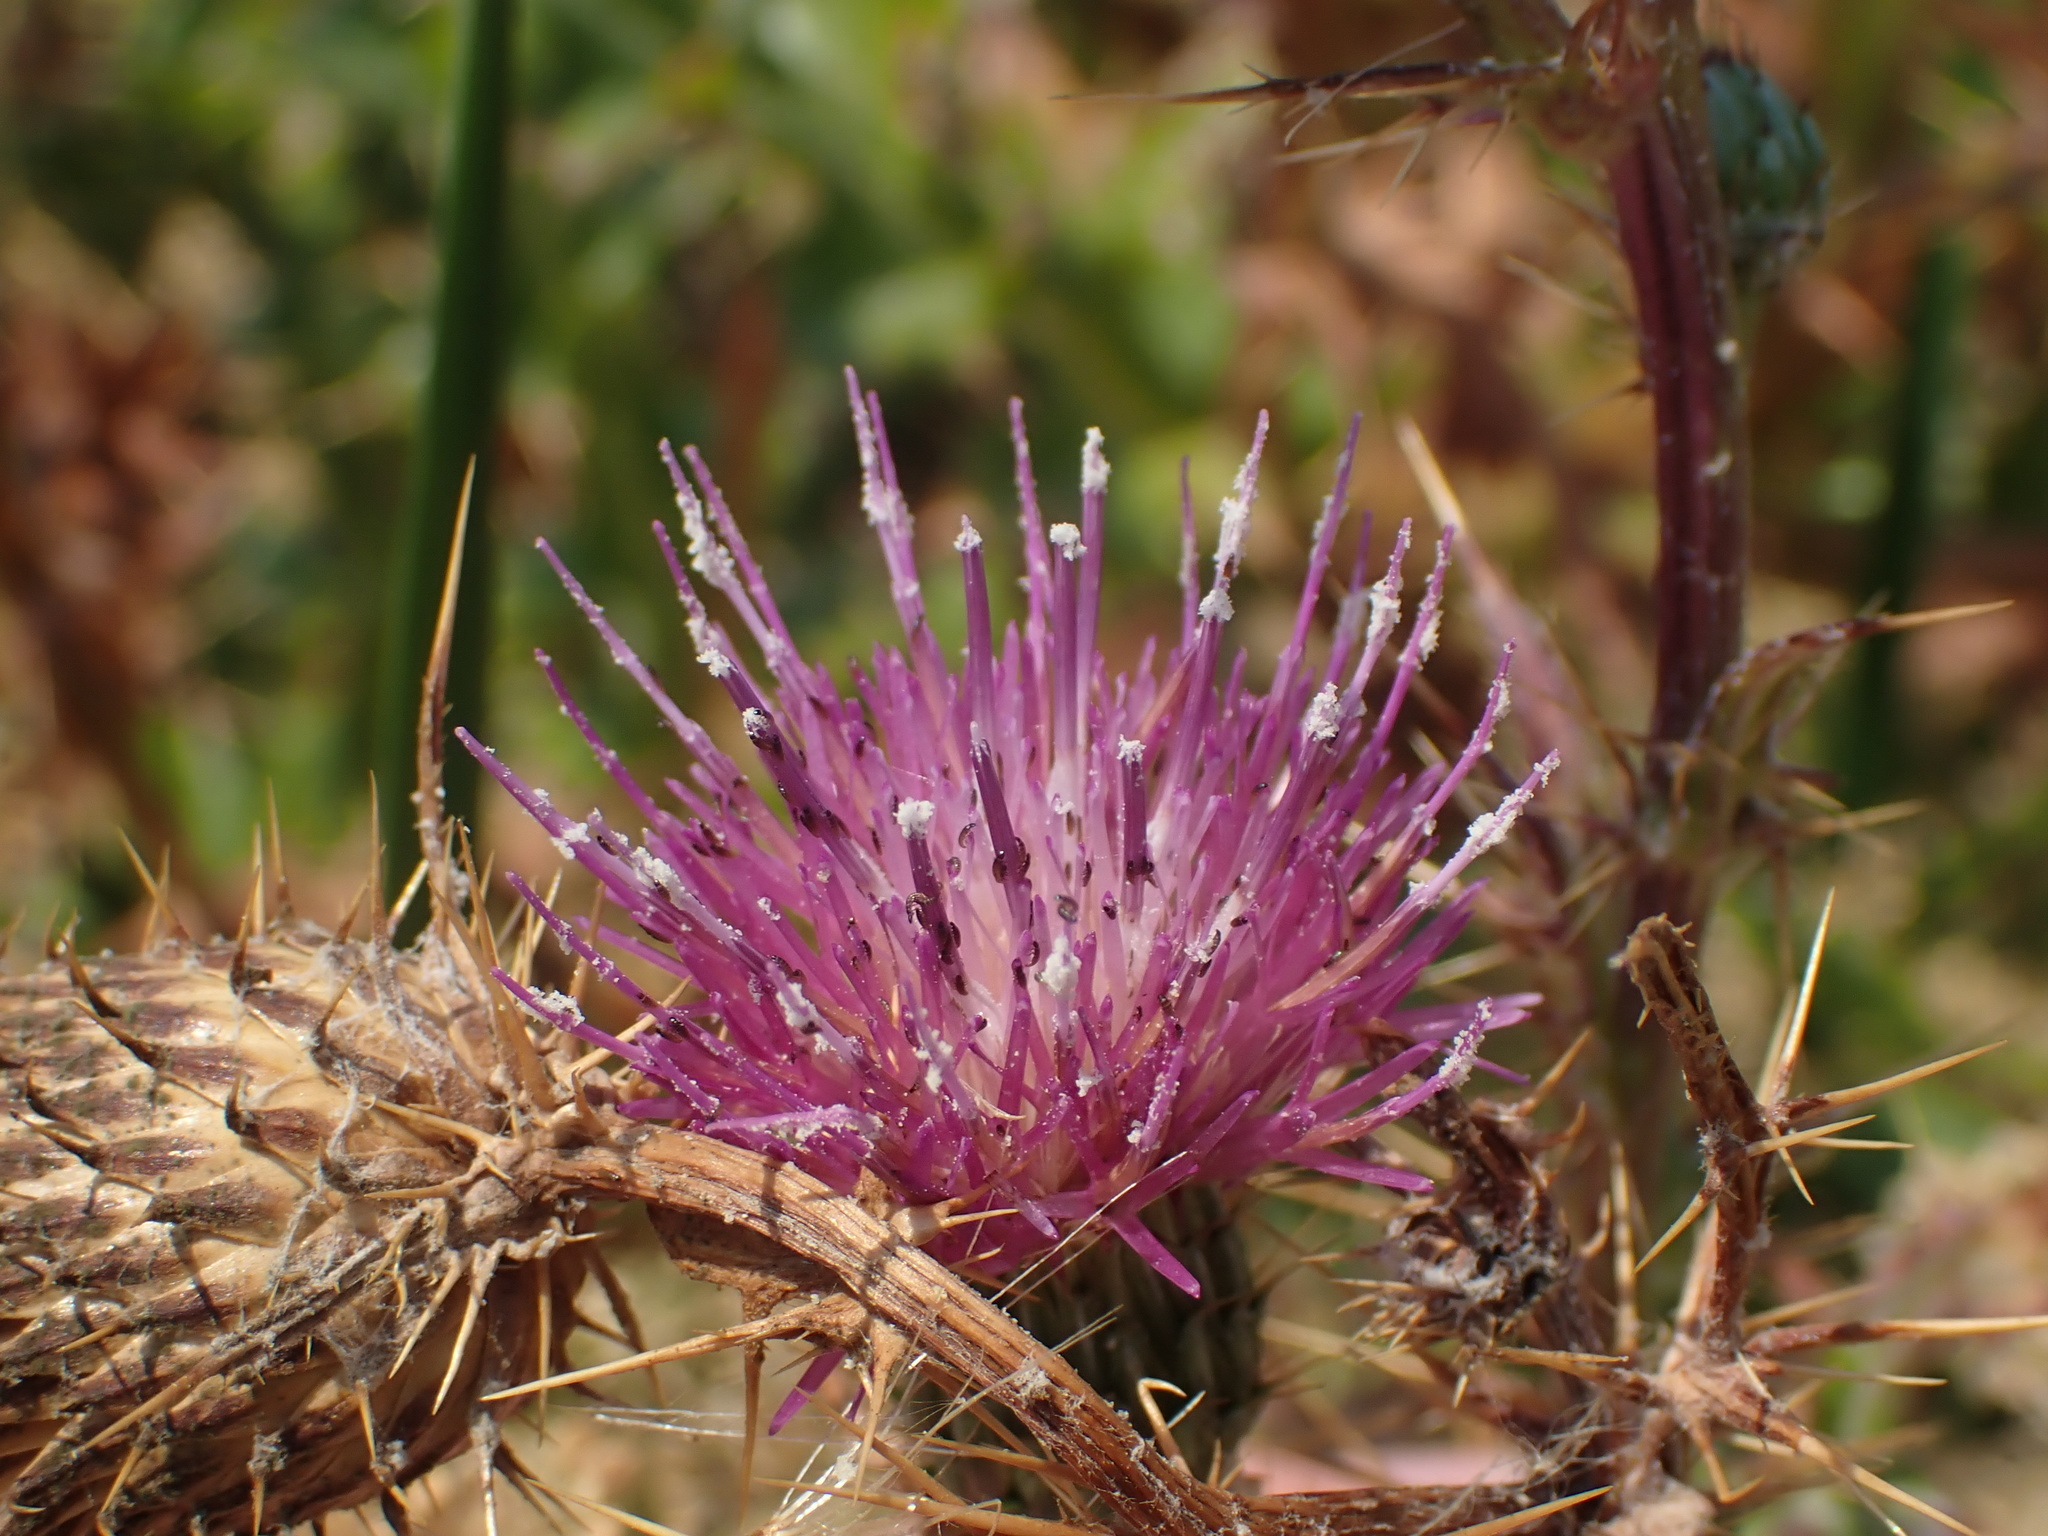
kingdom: Plantae
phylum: Tracheophyta
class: Magnoliopsida
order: Asterales
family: Asteraceae
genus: Cirsium
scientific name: Cirsium hydrophilum
